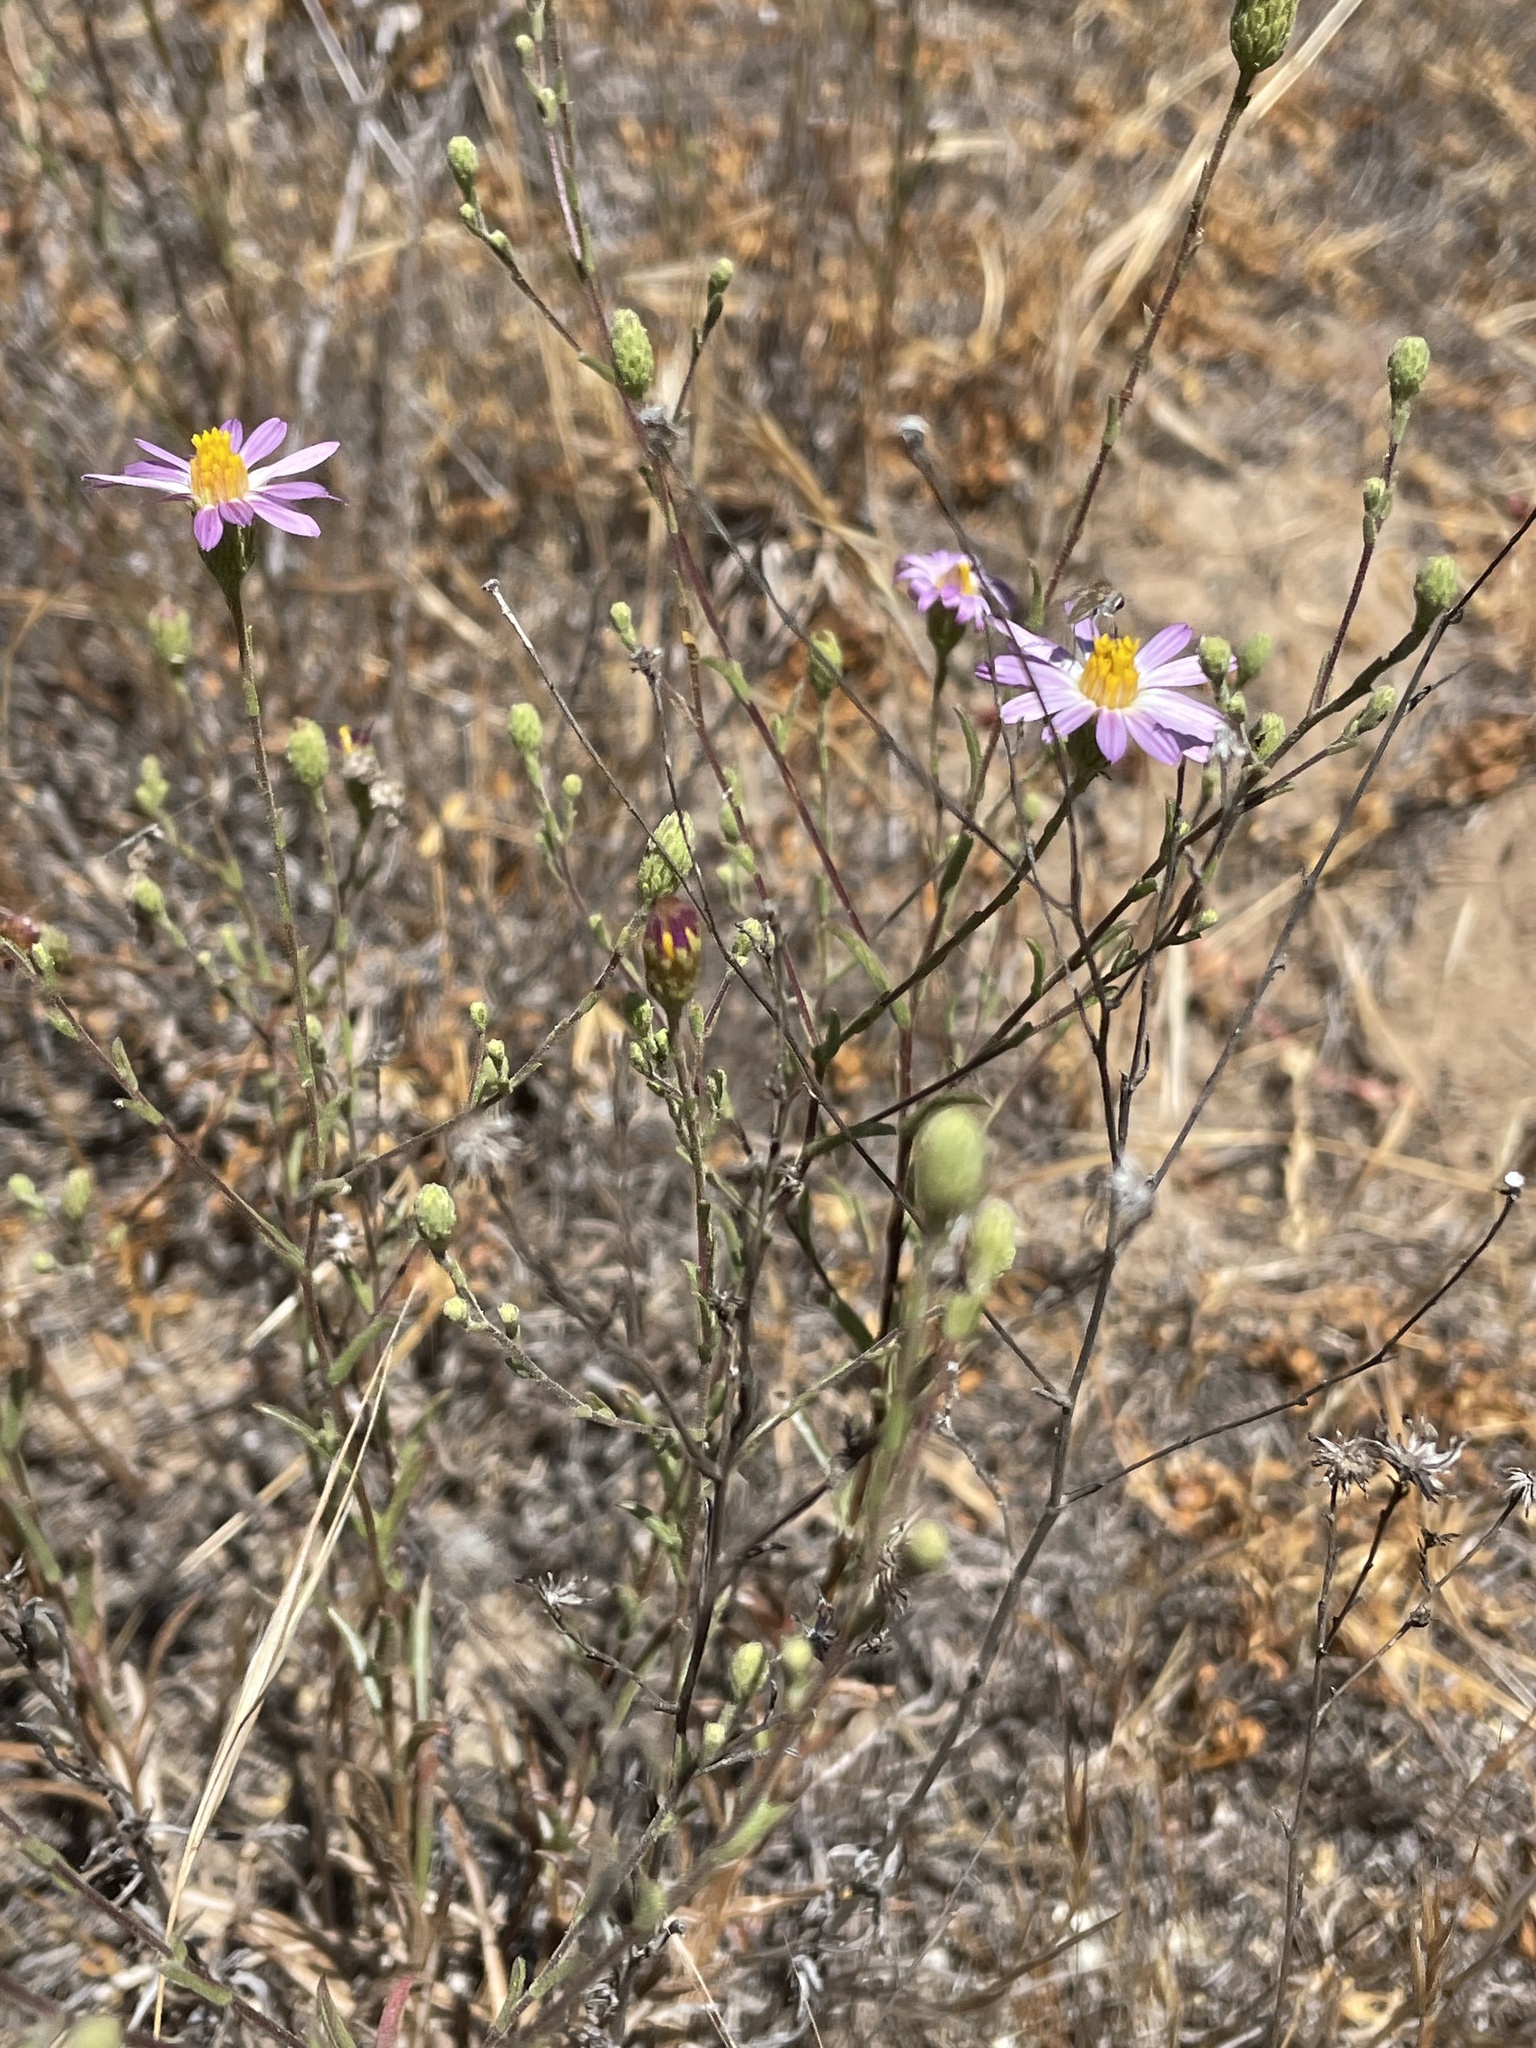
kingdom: Plantae
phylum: Tracheophyta
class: Magnoliopsida
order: Asterales
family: Asteraceae
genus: Corethrogyne
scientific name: Corethrogyne filaginifolia
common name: Sand-aster
